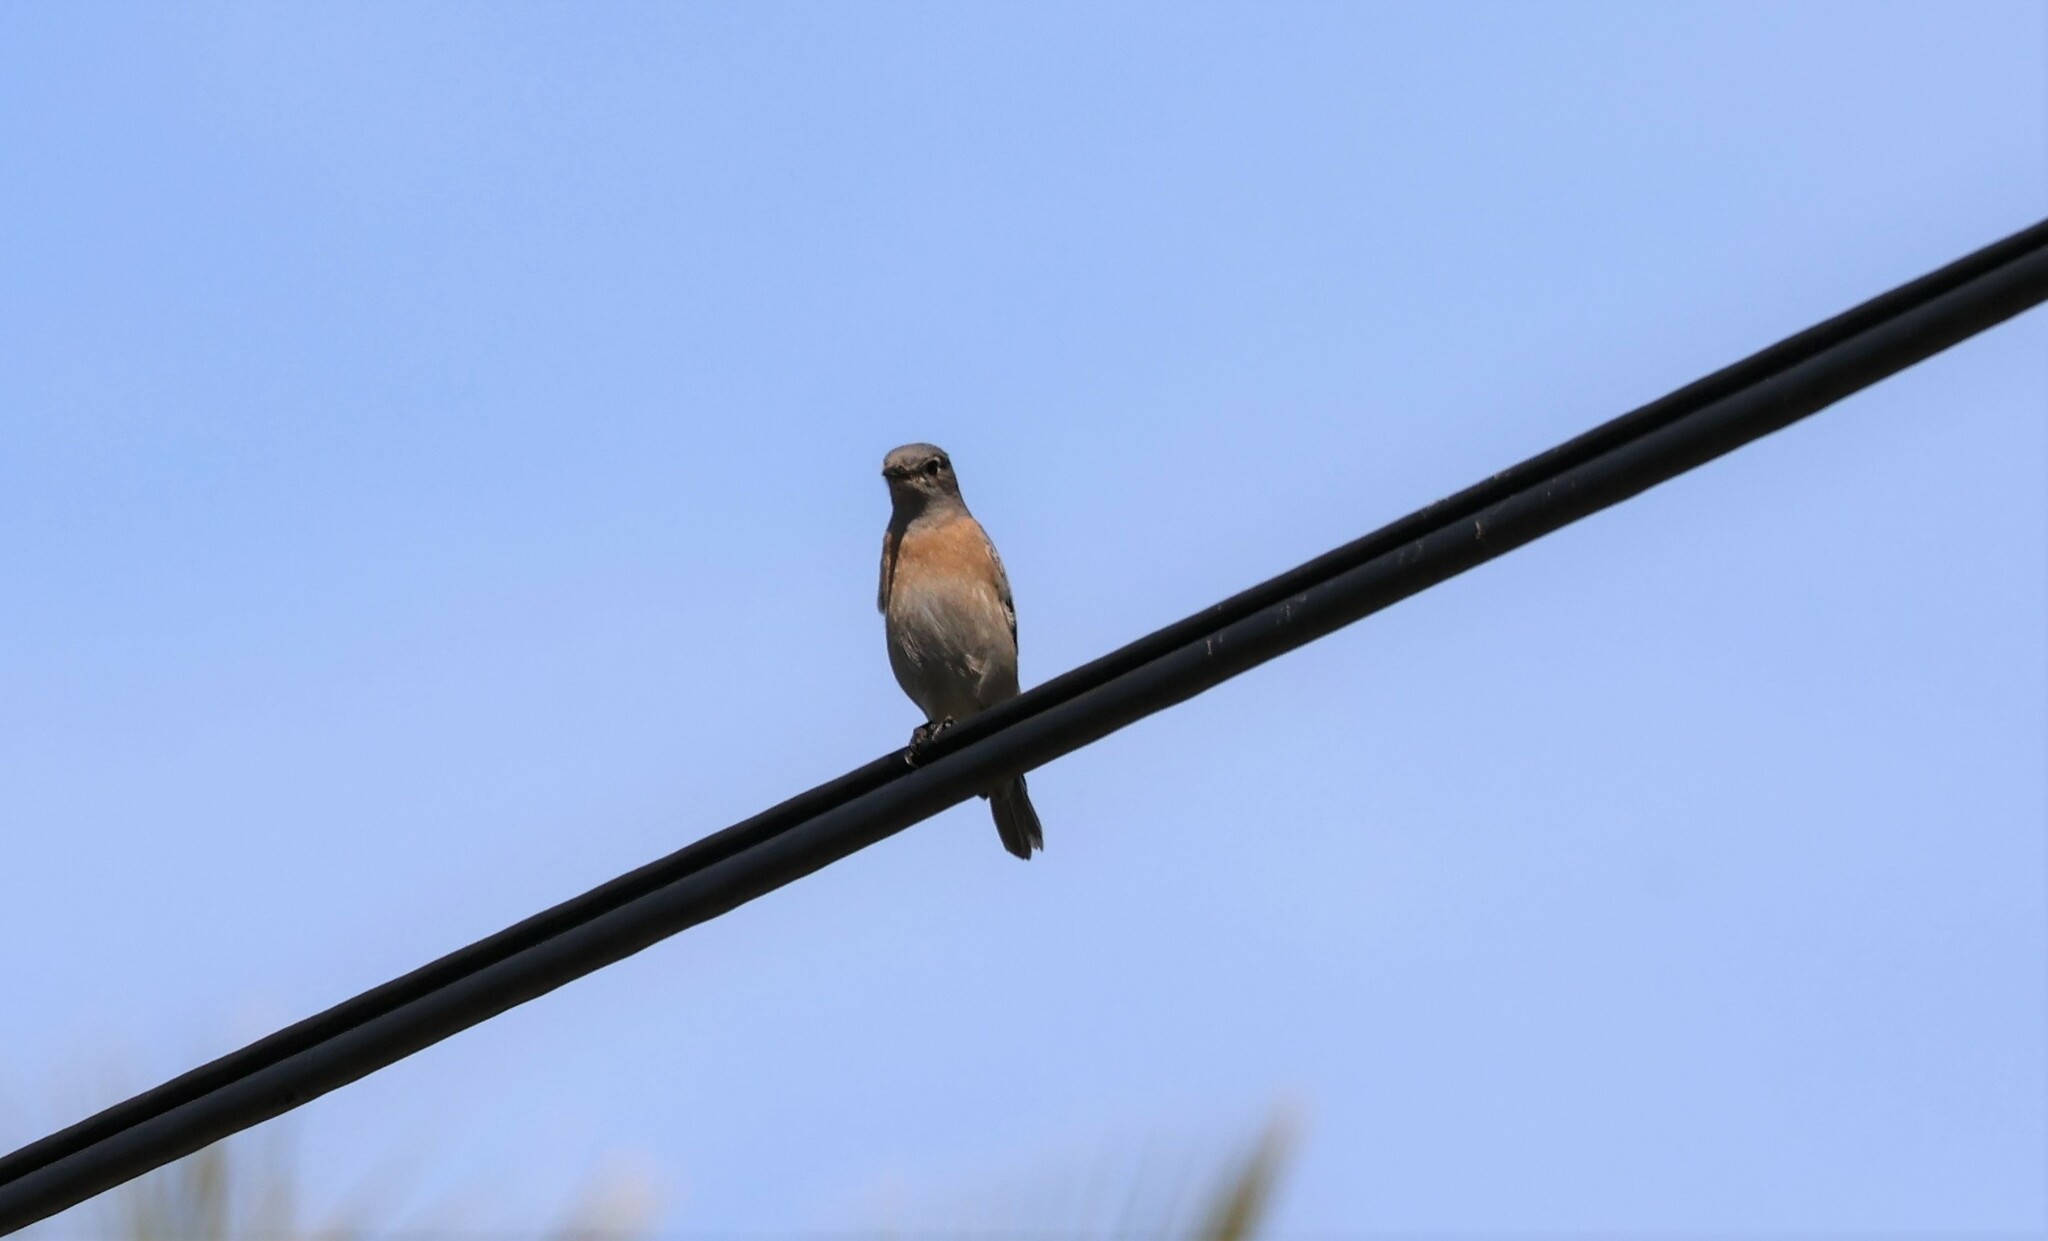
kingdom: Animalia
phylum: Chordata
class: Aves
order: Passeriformes
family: Turdidae
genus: Sialia
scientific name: Sialia mexicana
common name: Western bluebird
